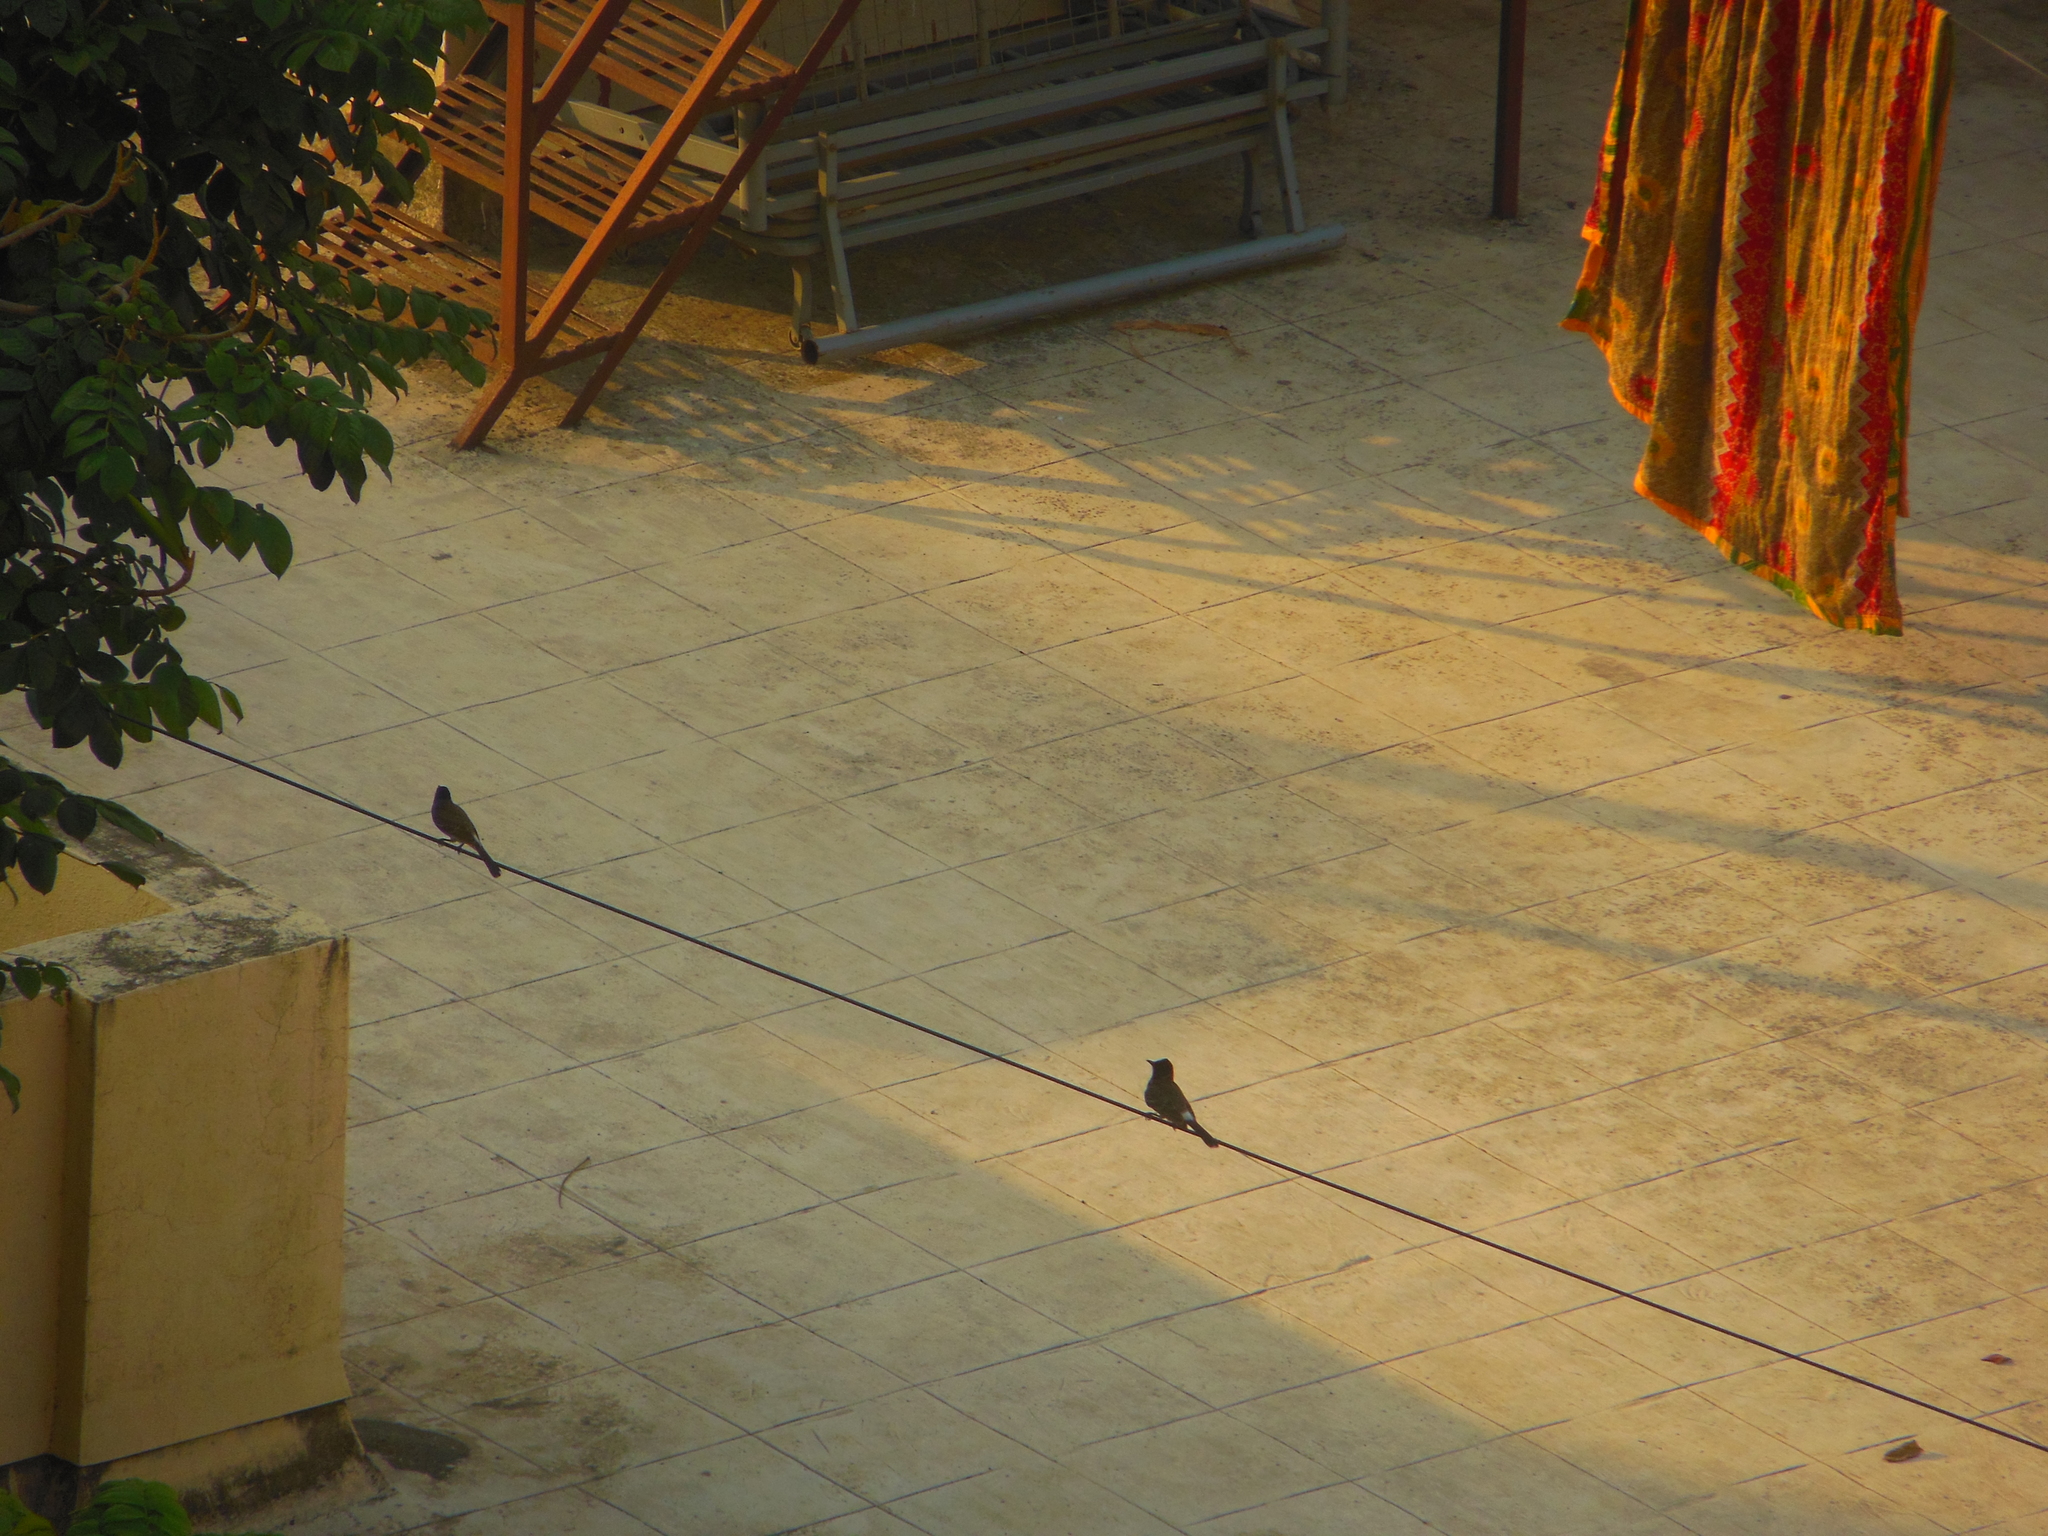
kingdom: Animalia
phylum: Chordata
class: Aves
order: Passeriformes
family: Pycnonotidae
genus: Pycnonotus
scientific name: Pycnonotus cafer
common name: Red-vented bulbul
